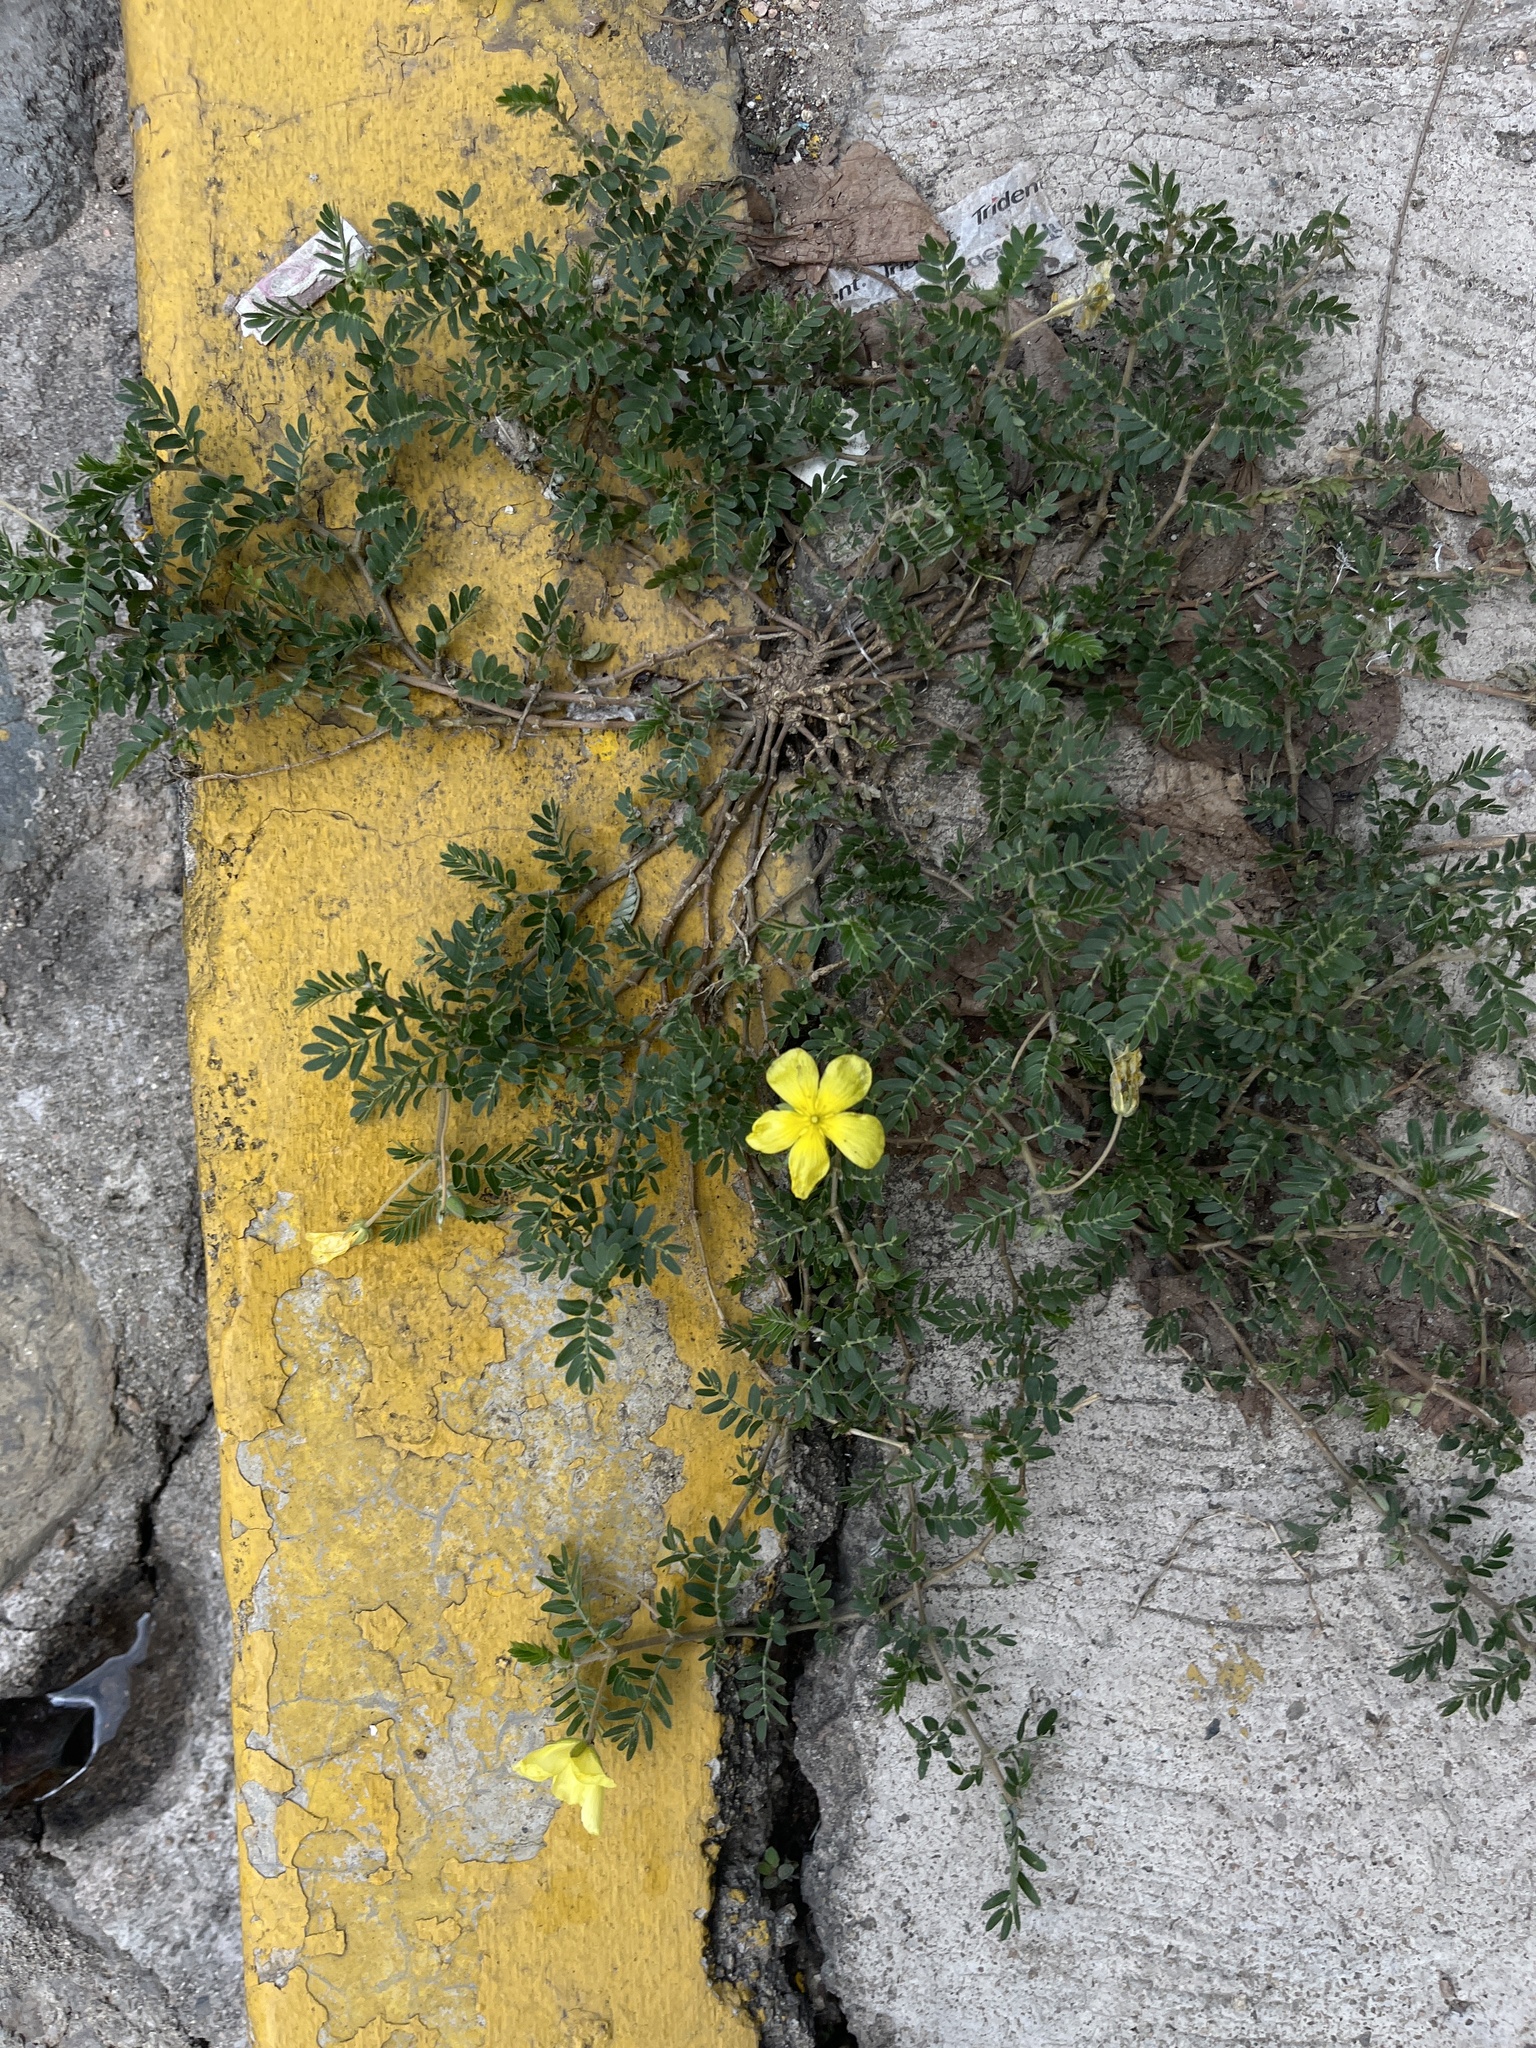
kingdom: Plantae
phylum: Tracheophyta
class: Magnoliopsida
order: Zygophyllales
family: Zygophyllaceae
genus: Tribulus
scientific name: Tribulus cistoides
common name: Jamaican feverplant
